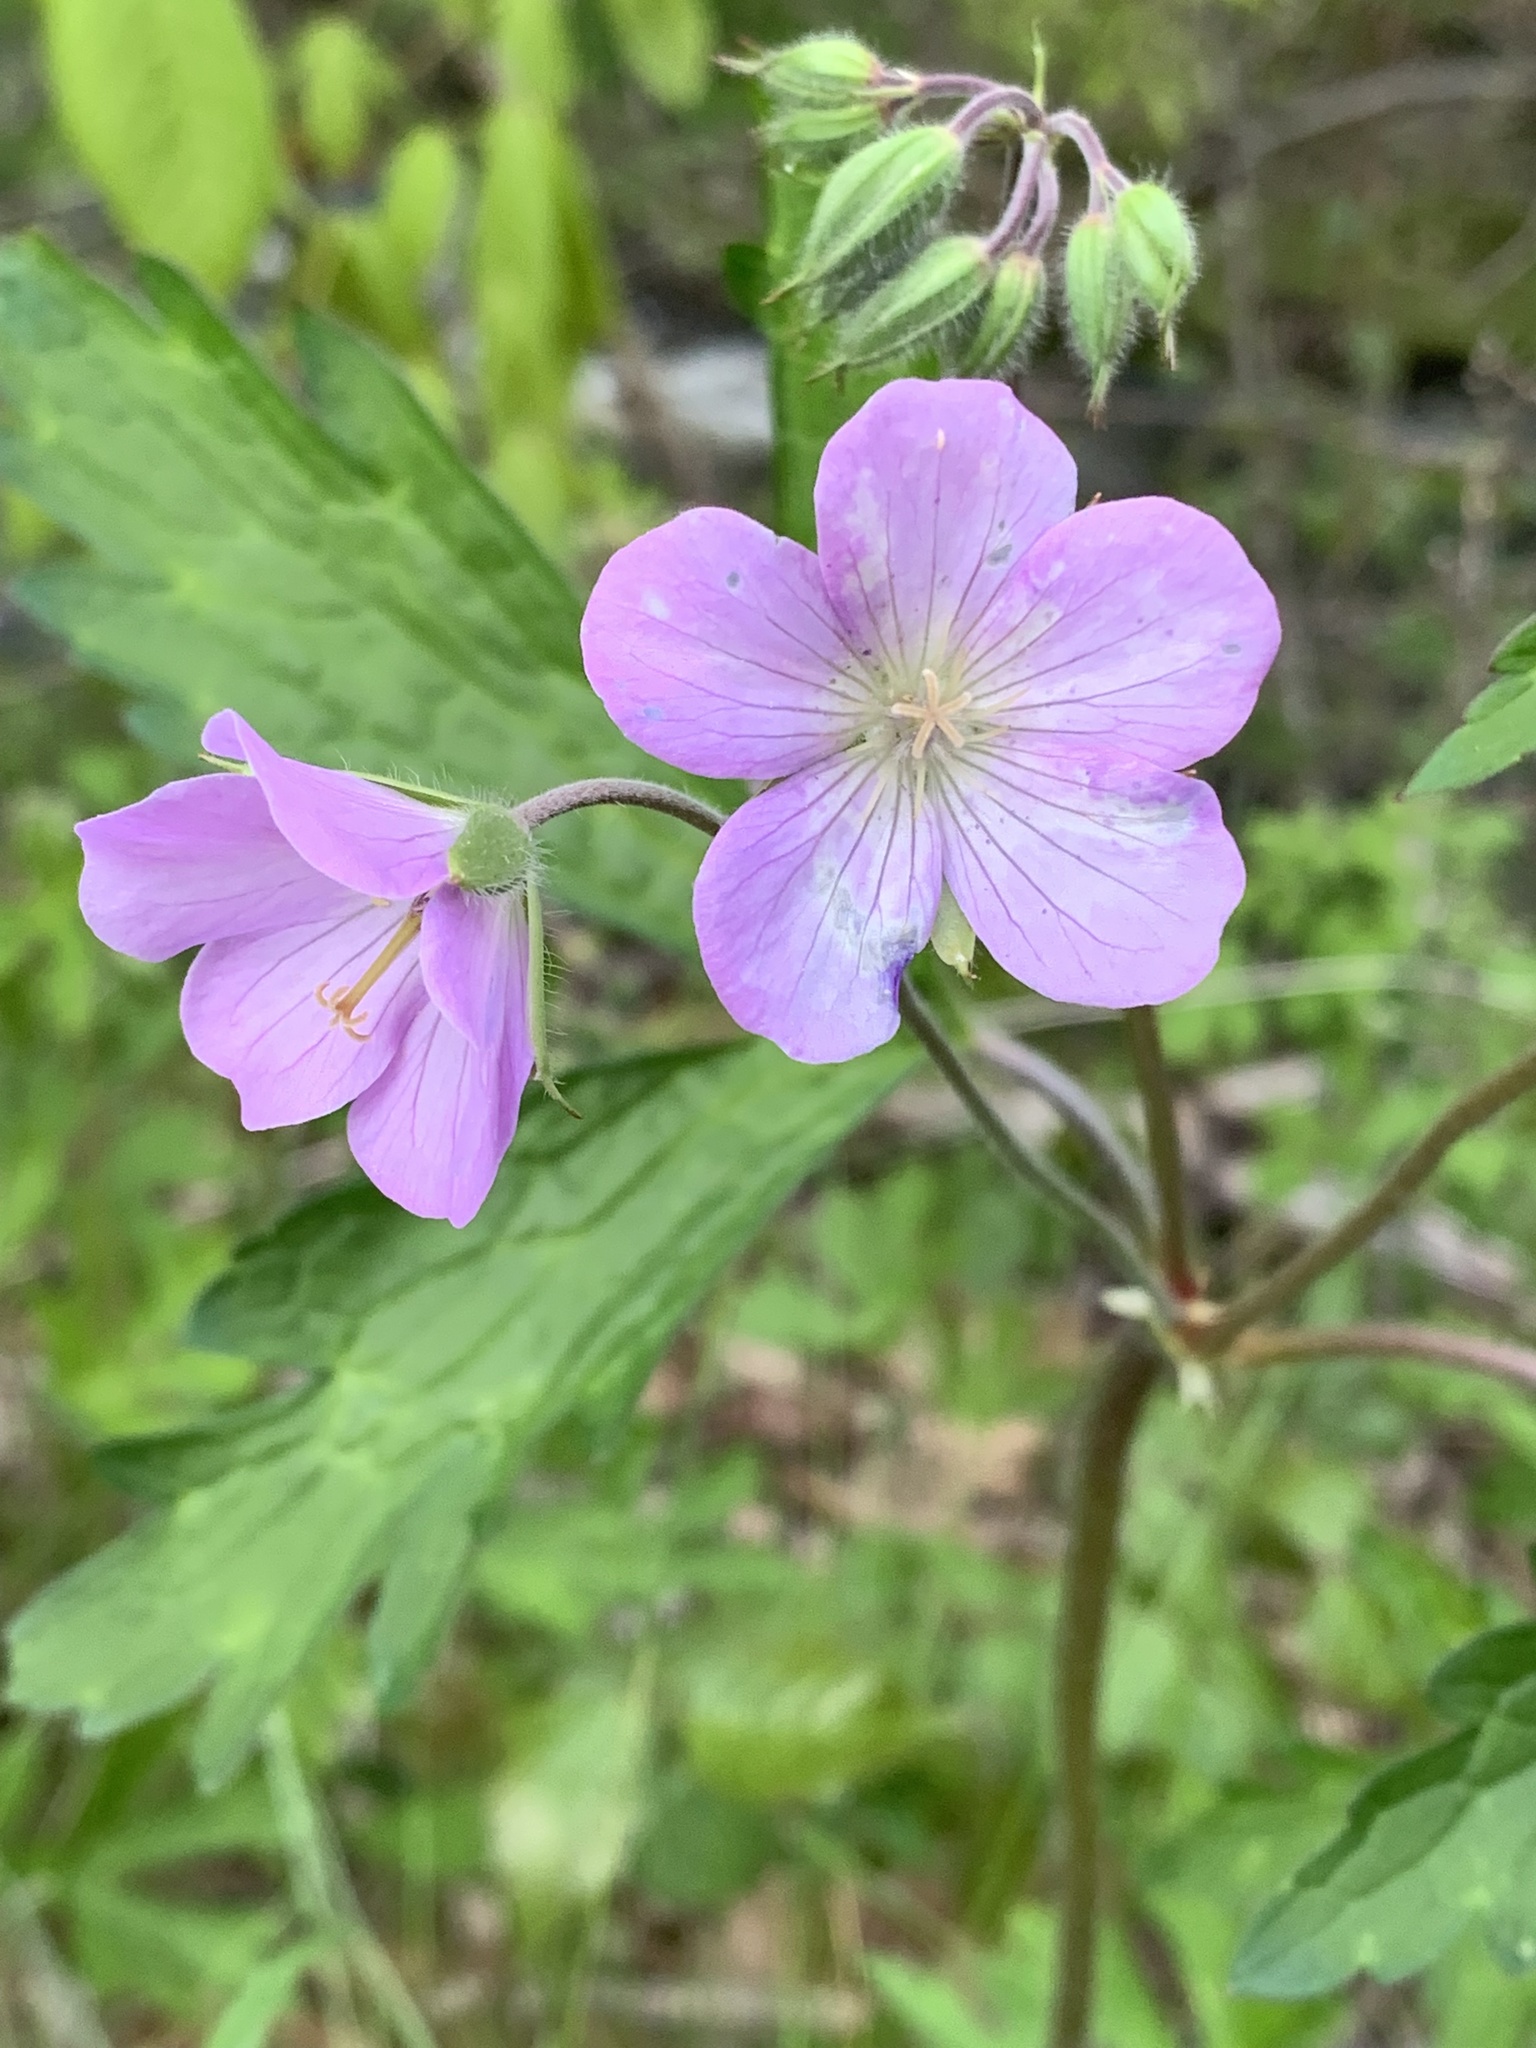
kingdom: Plantae
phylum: Tracheophyta
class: Magnoliopsida
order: Geraniales
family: Geraniaceae
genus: Geranium
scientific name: Geranium maculatum
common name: Spotted geranium
